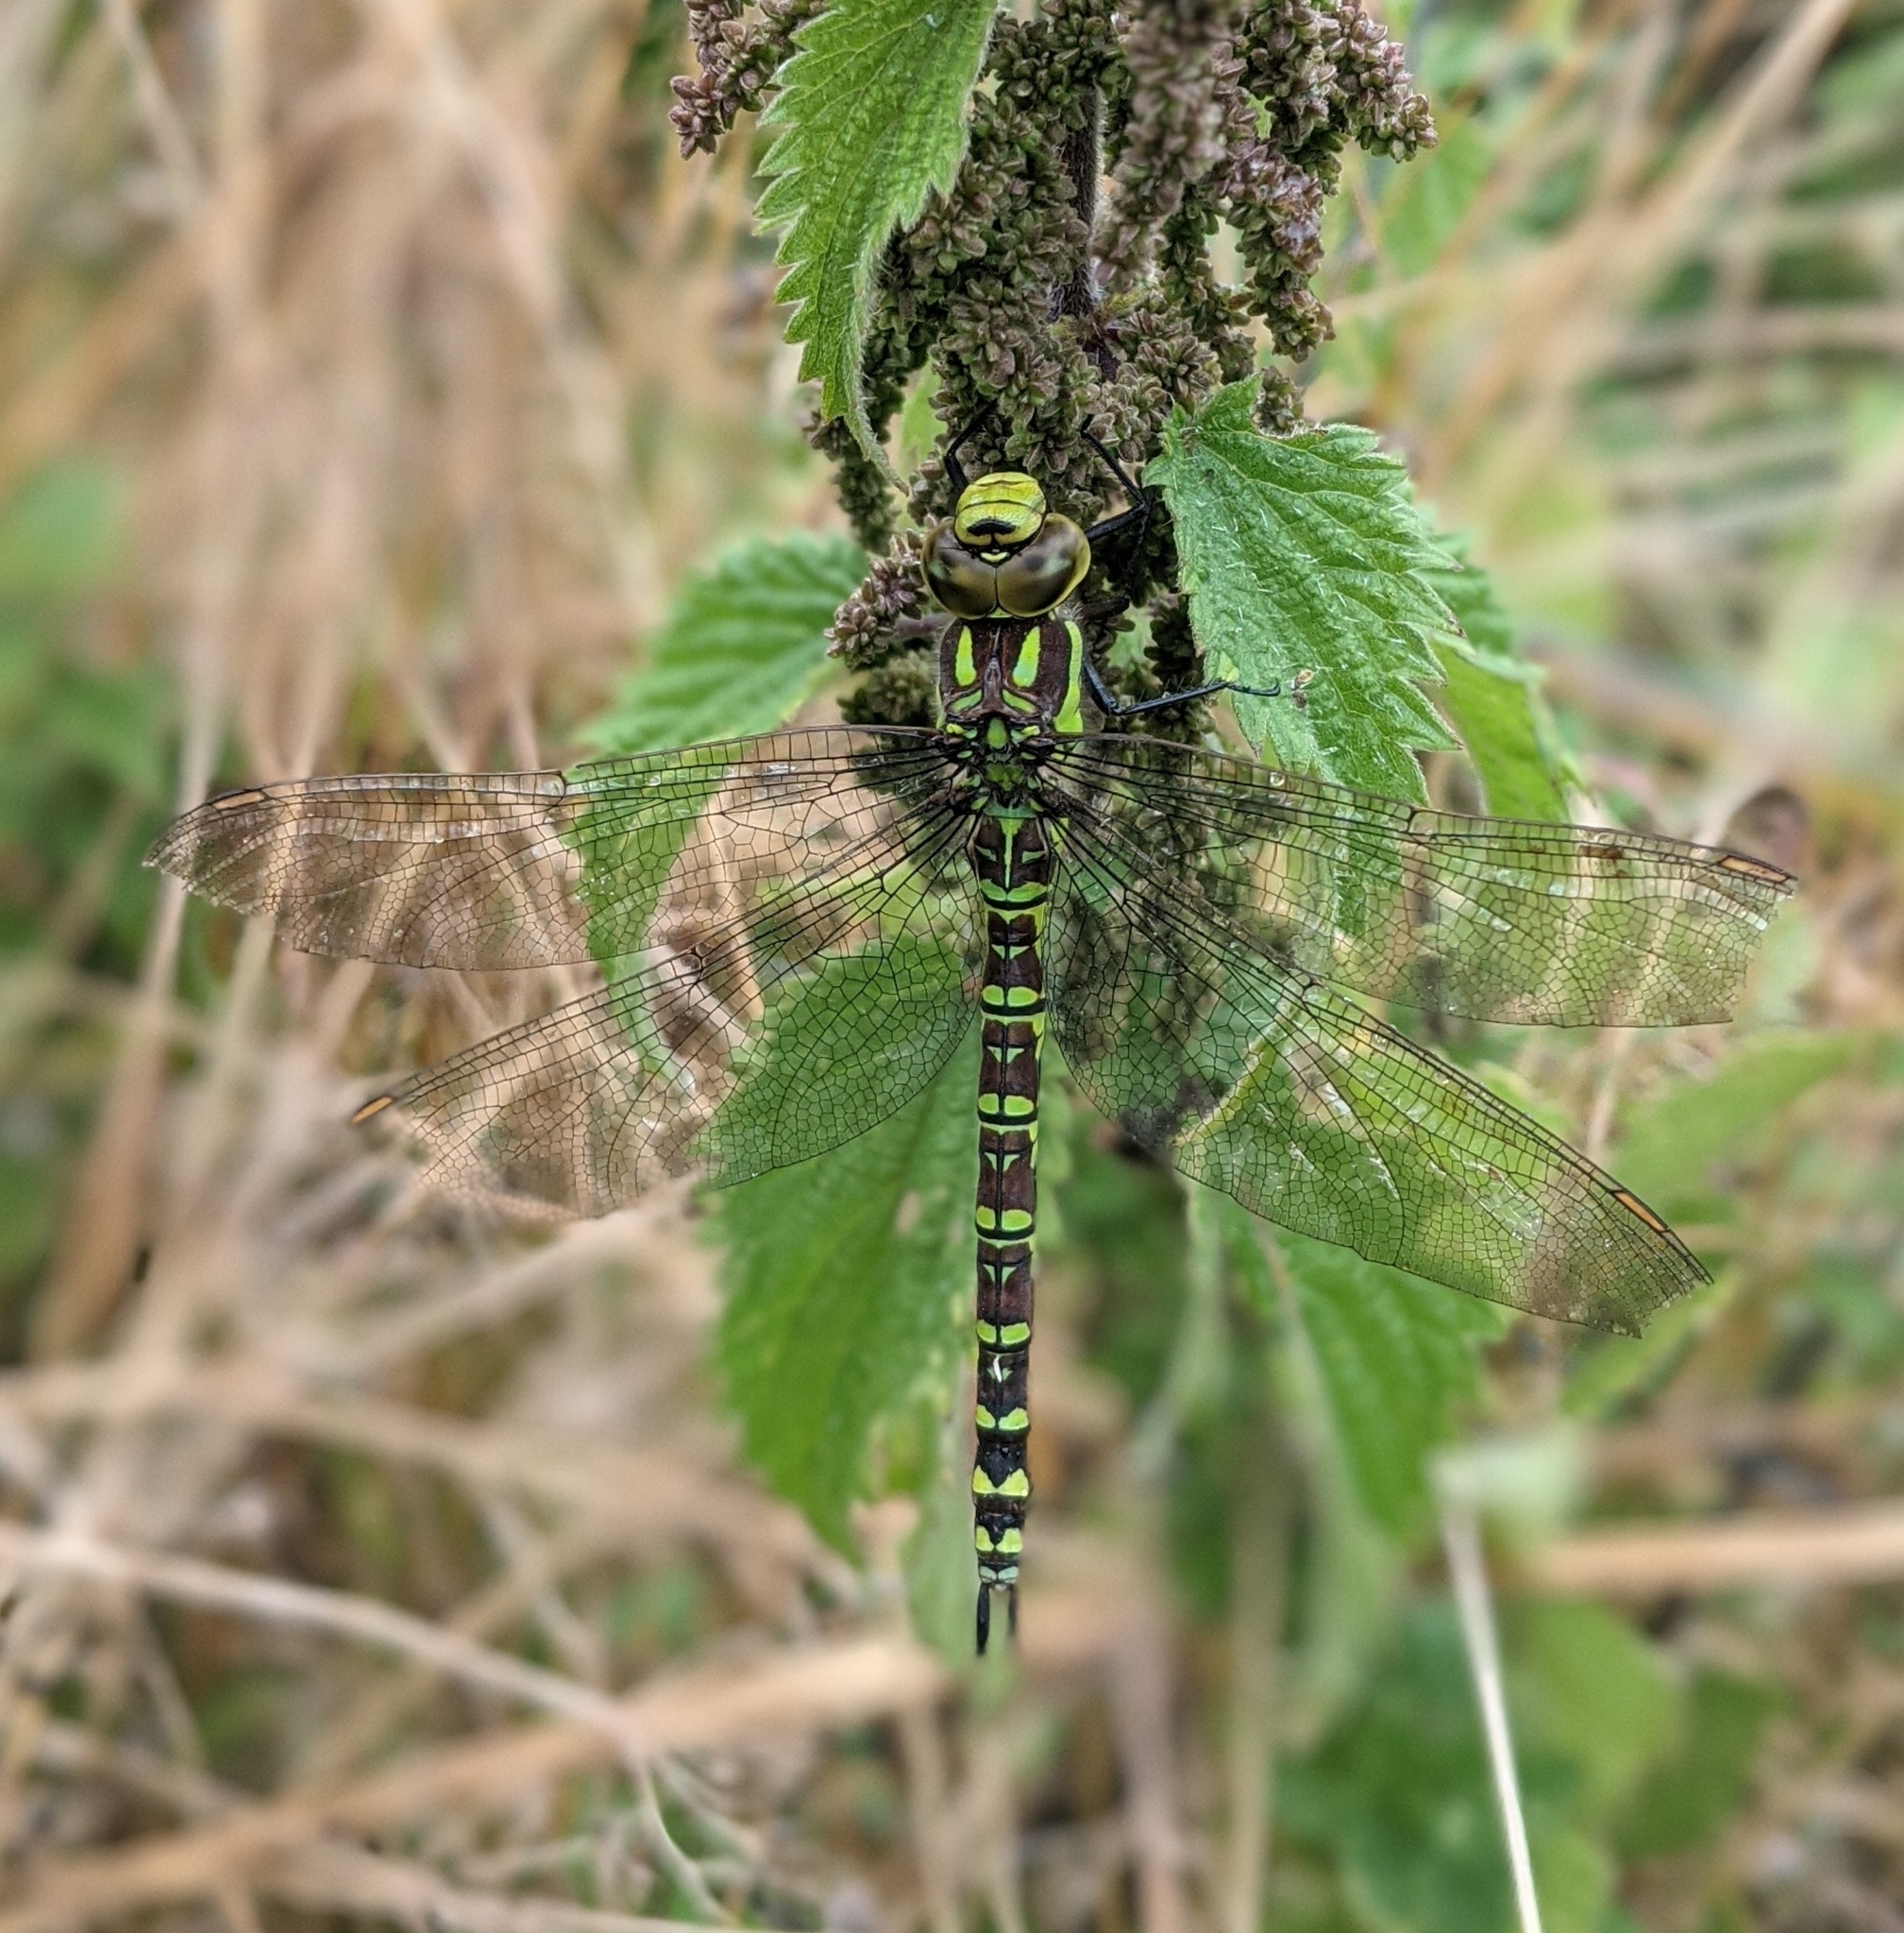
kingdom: Animalia
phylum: Arthropoda
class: Insecta
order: Odonata
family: Aeshnidae
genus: Aeshna
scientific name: Aeshna cyanea
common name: Southern hawker
